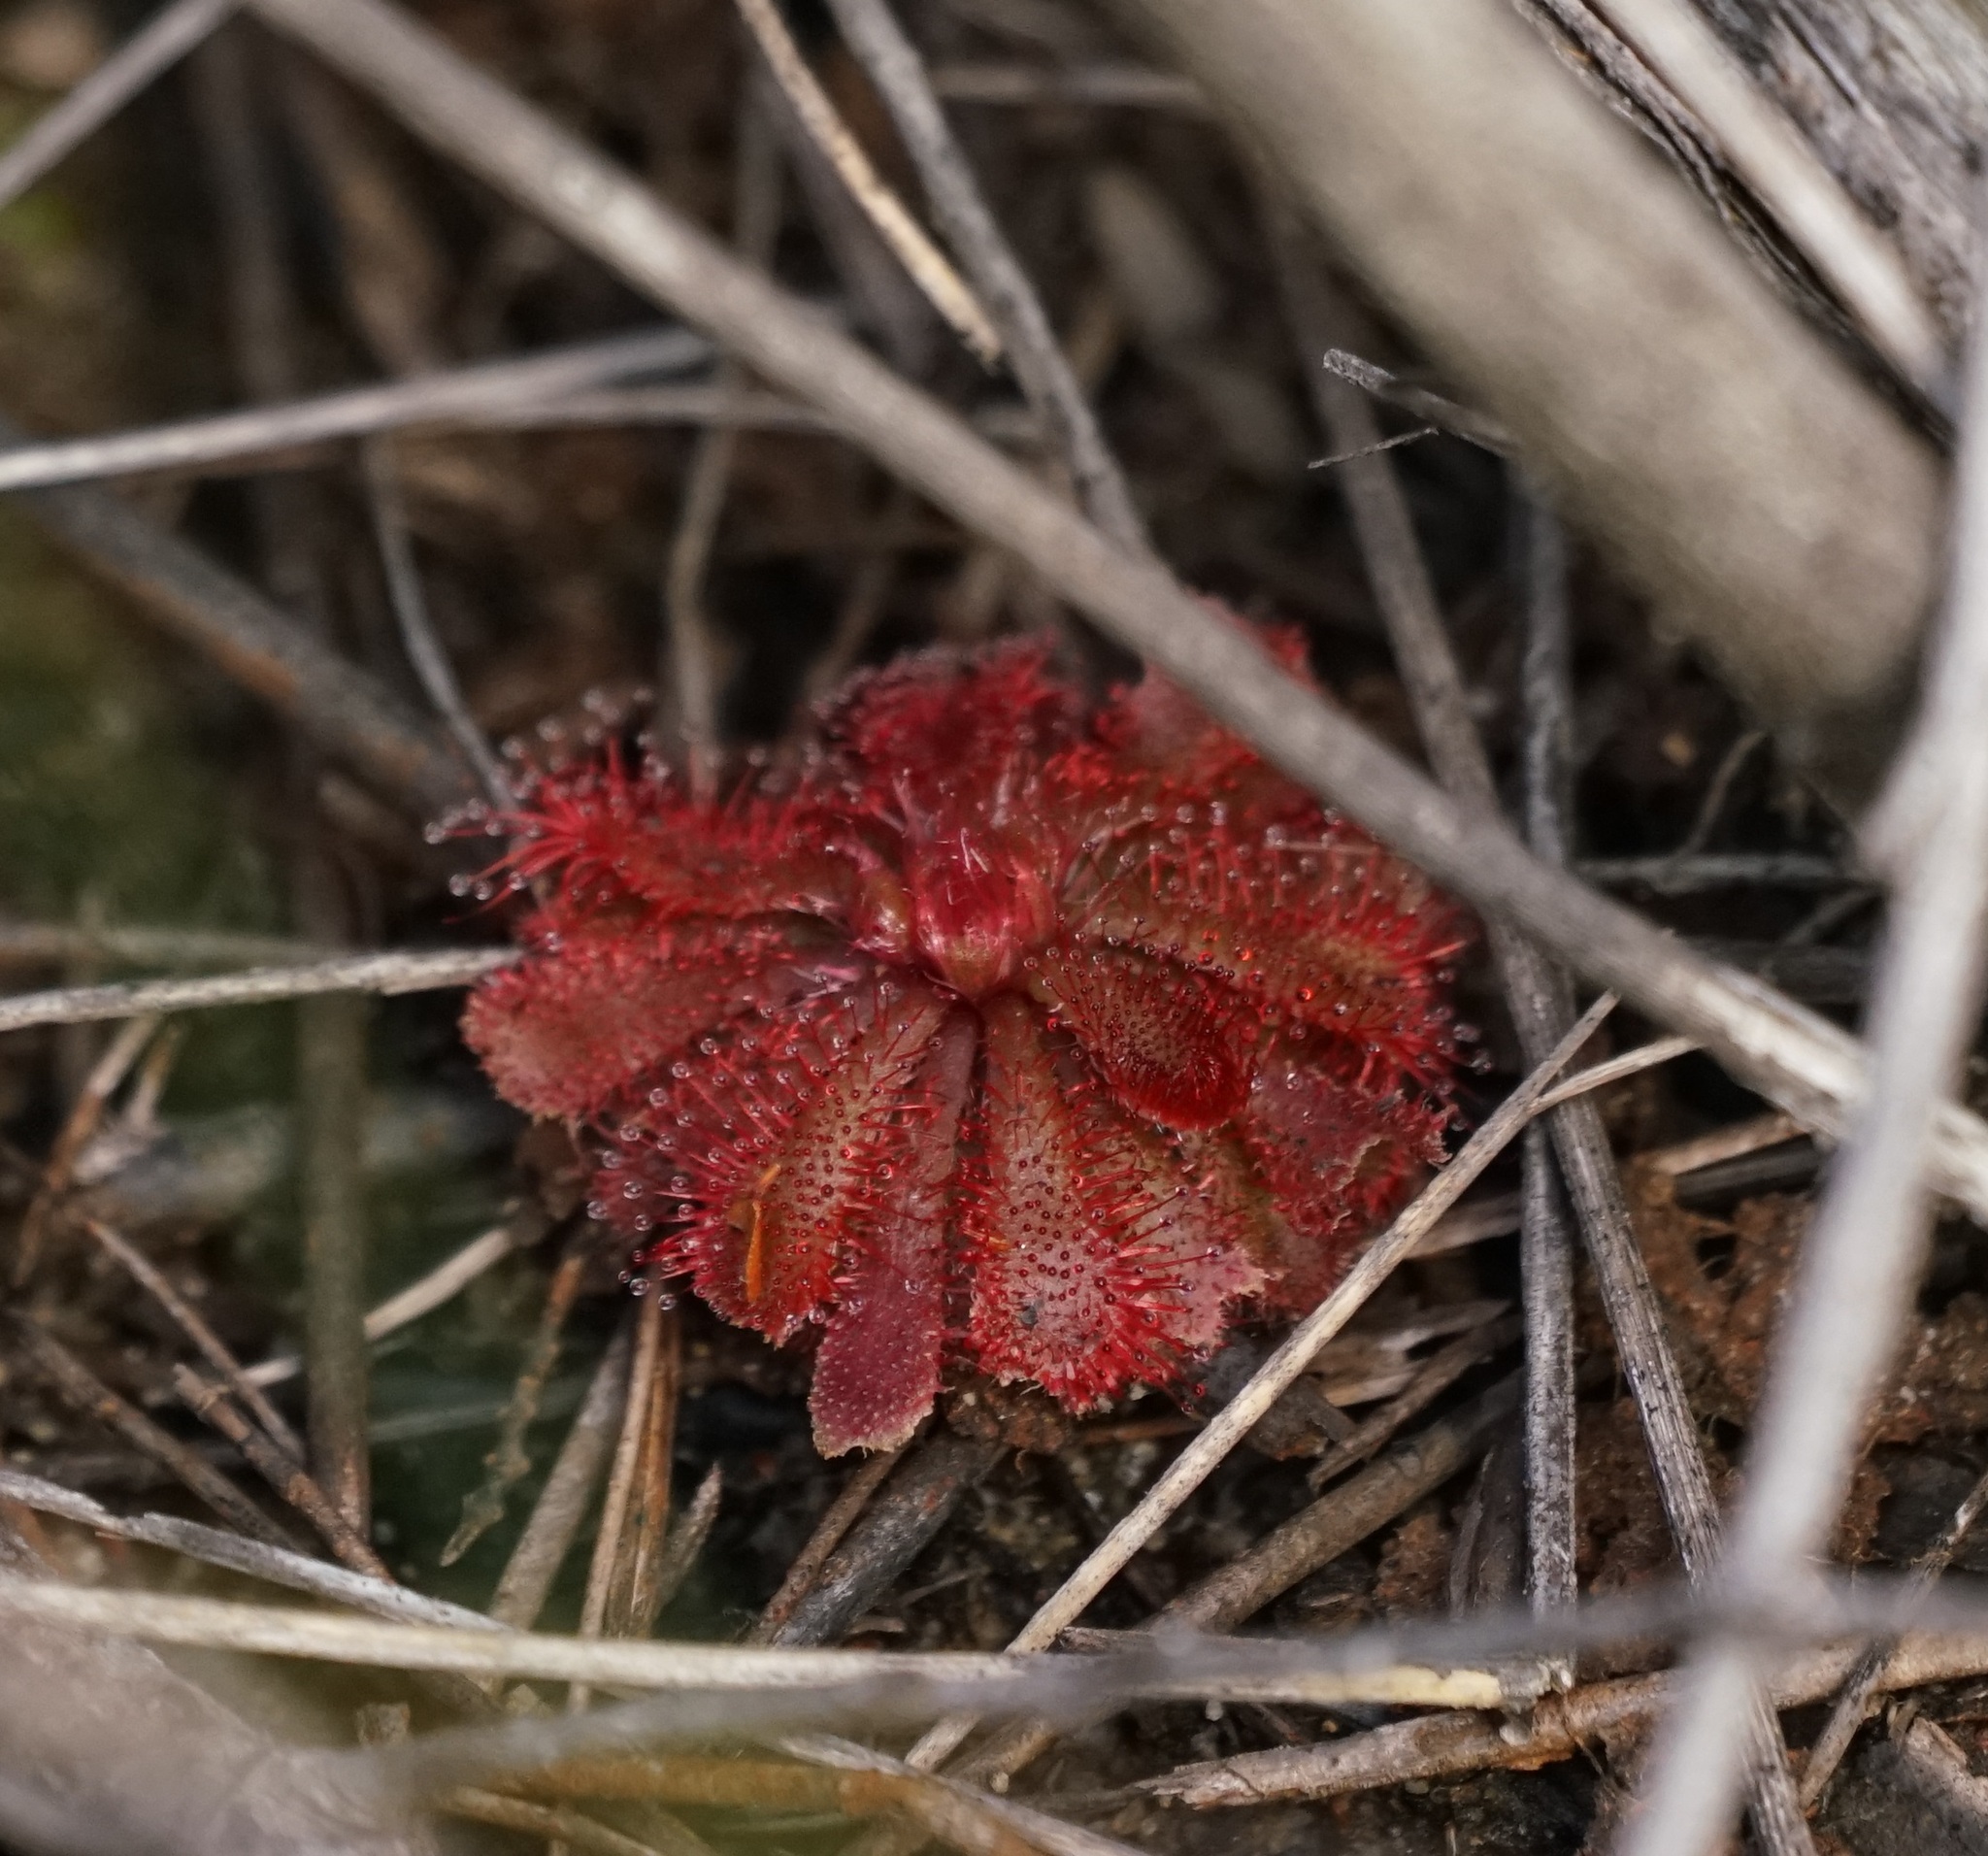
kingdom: Plantae
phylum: Tracheophyta
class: Magnoliopsida
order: Caryophyllales
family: Droseraceae
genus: Drosera
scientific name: Drosera spatulata
